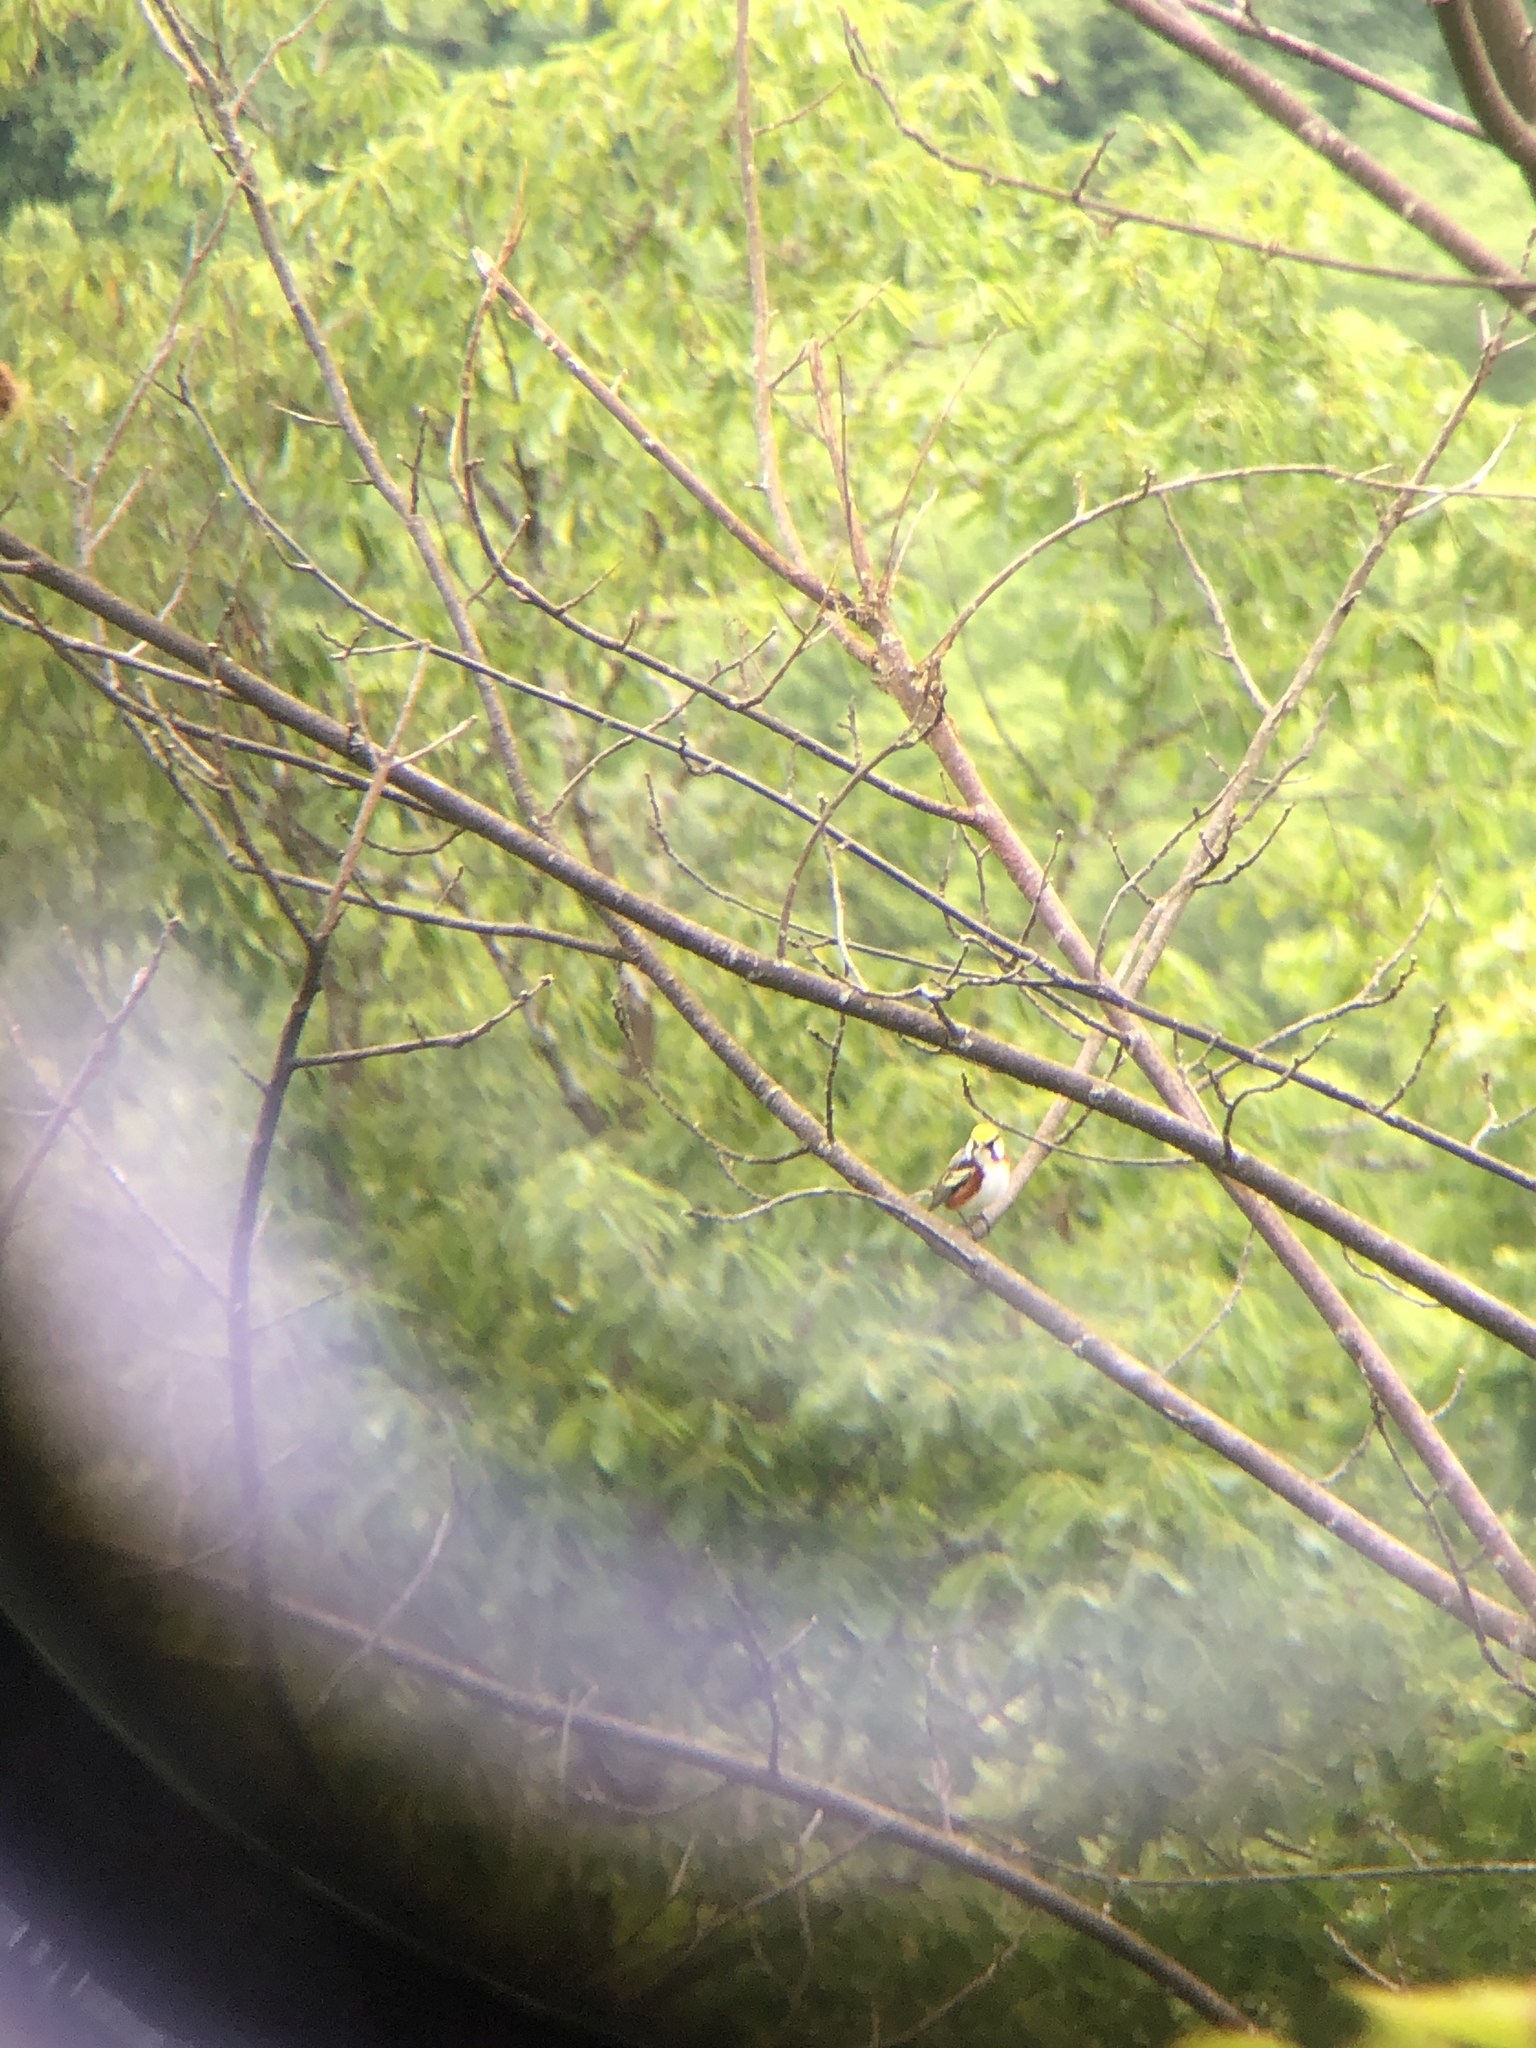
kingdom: Animalia
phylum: Chordata
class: Aves
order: Passeriformes
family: Parulidae
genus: Setophaga
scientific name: Setophaga pensylvanica
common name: Chestnut-sided warbler
